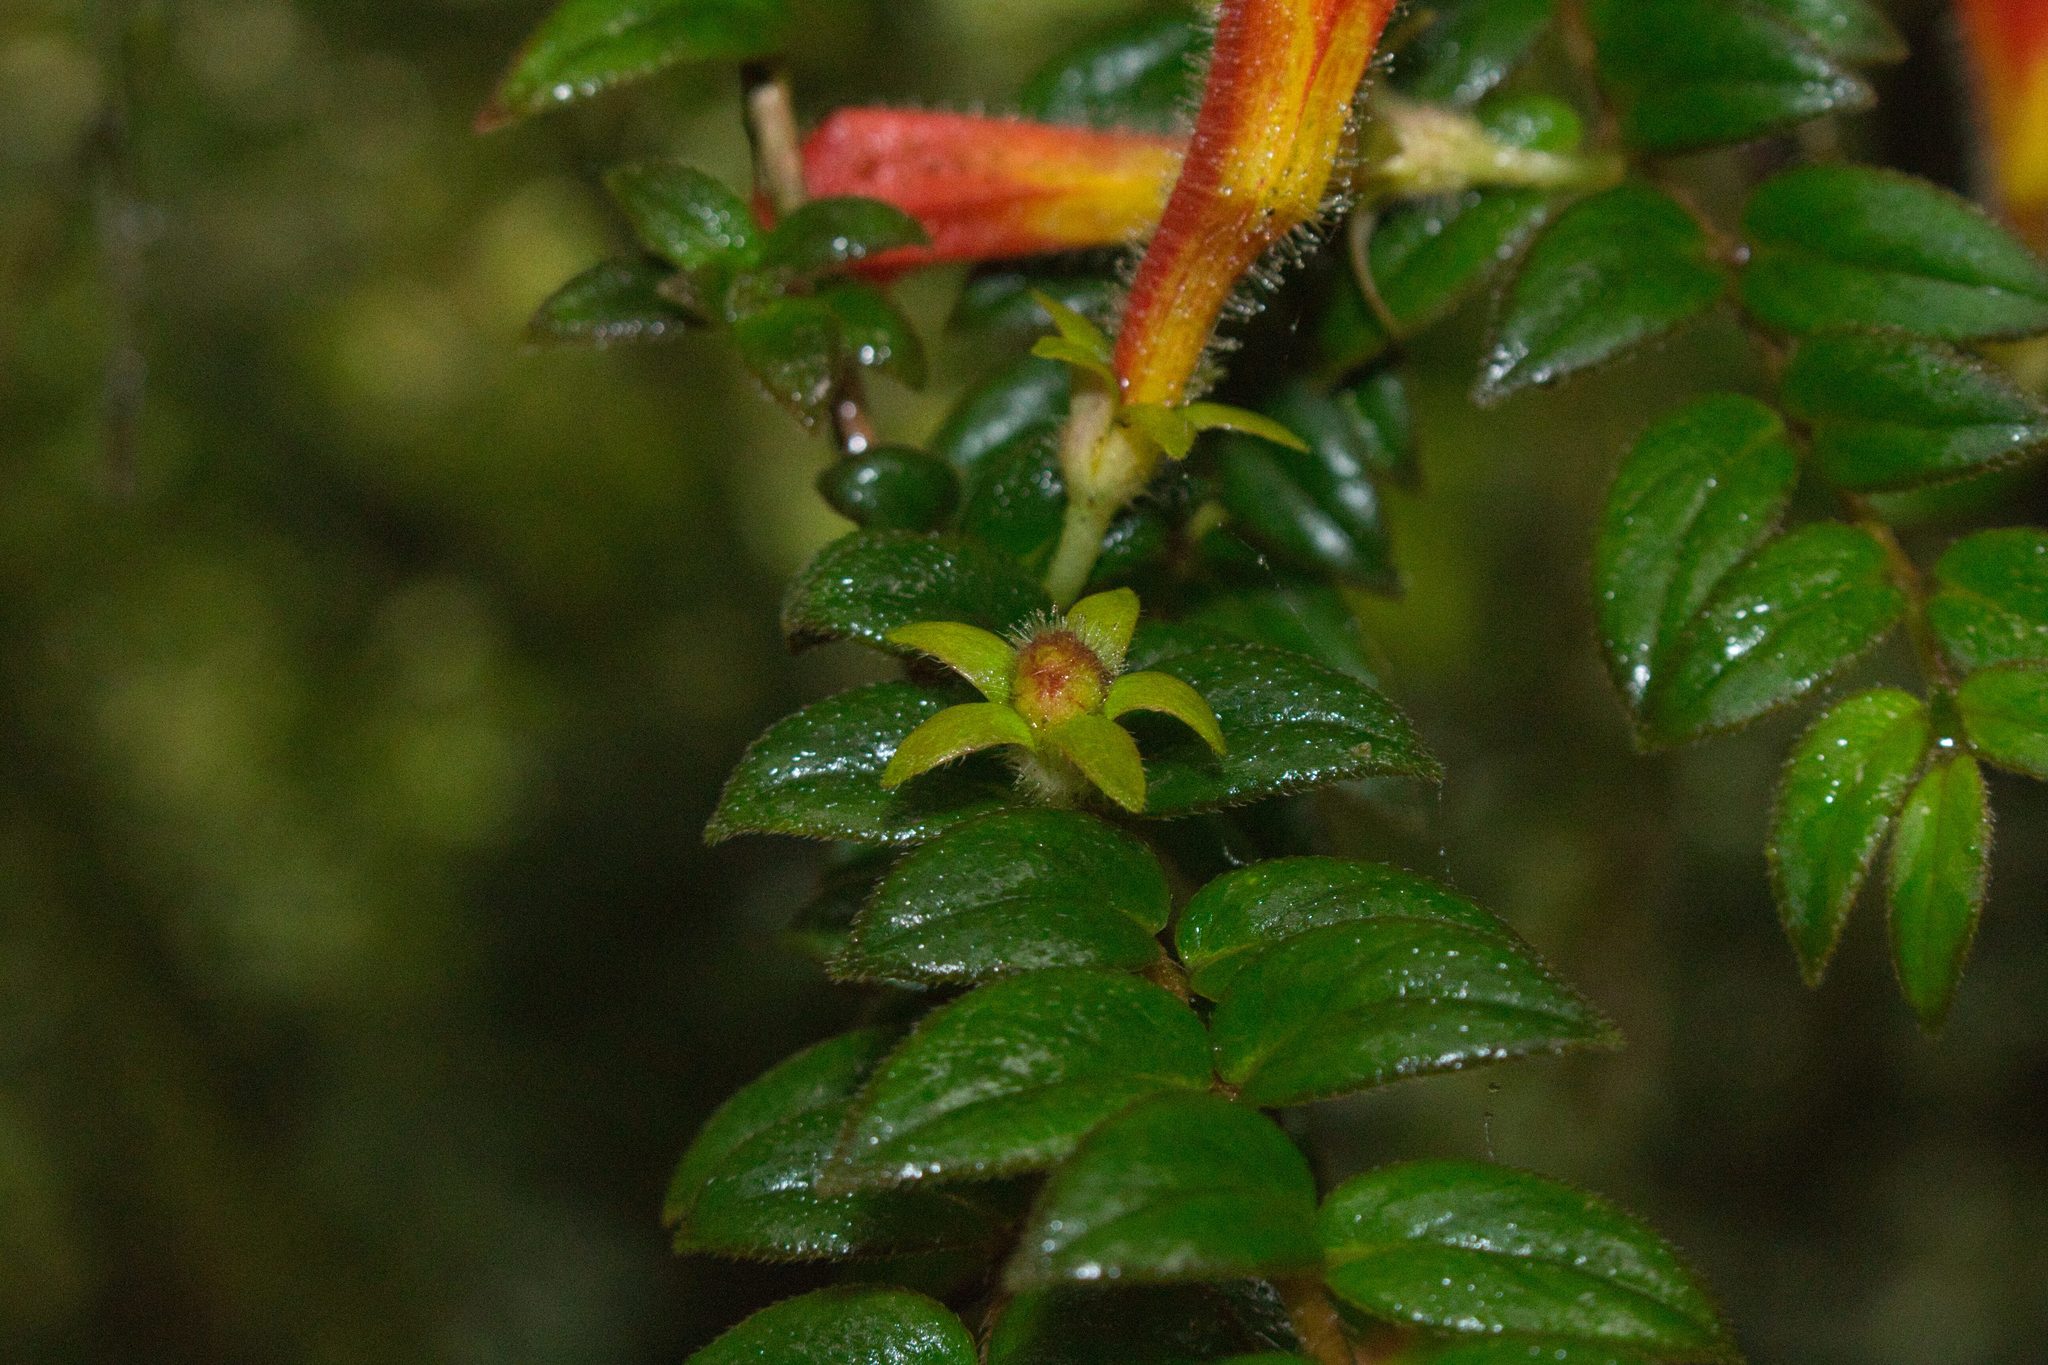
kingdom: Plantae
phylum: Tracheophyta
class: Magnoliopsida
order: Lamiales
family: Gesneriaceae
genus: Columnea
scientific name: Columnea microcalyx
